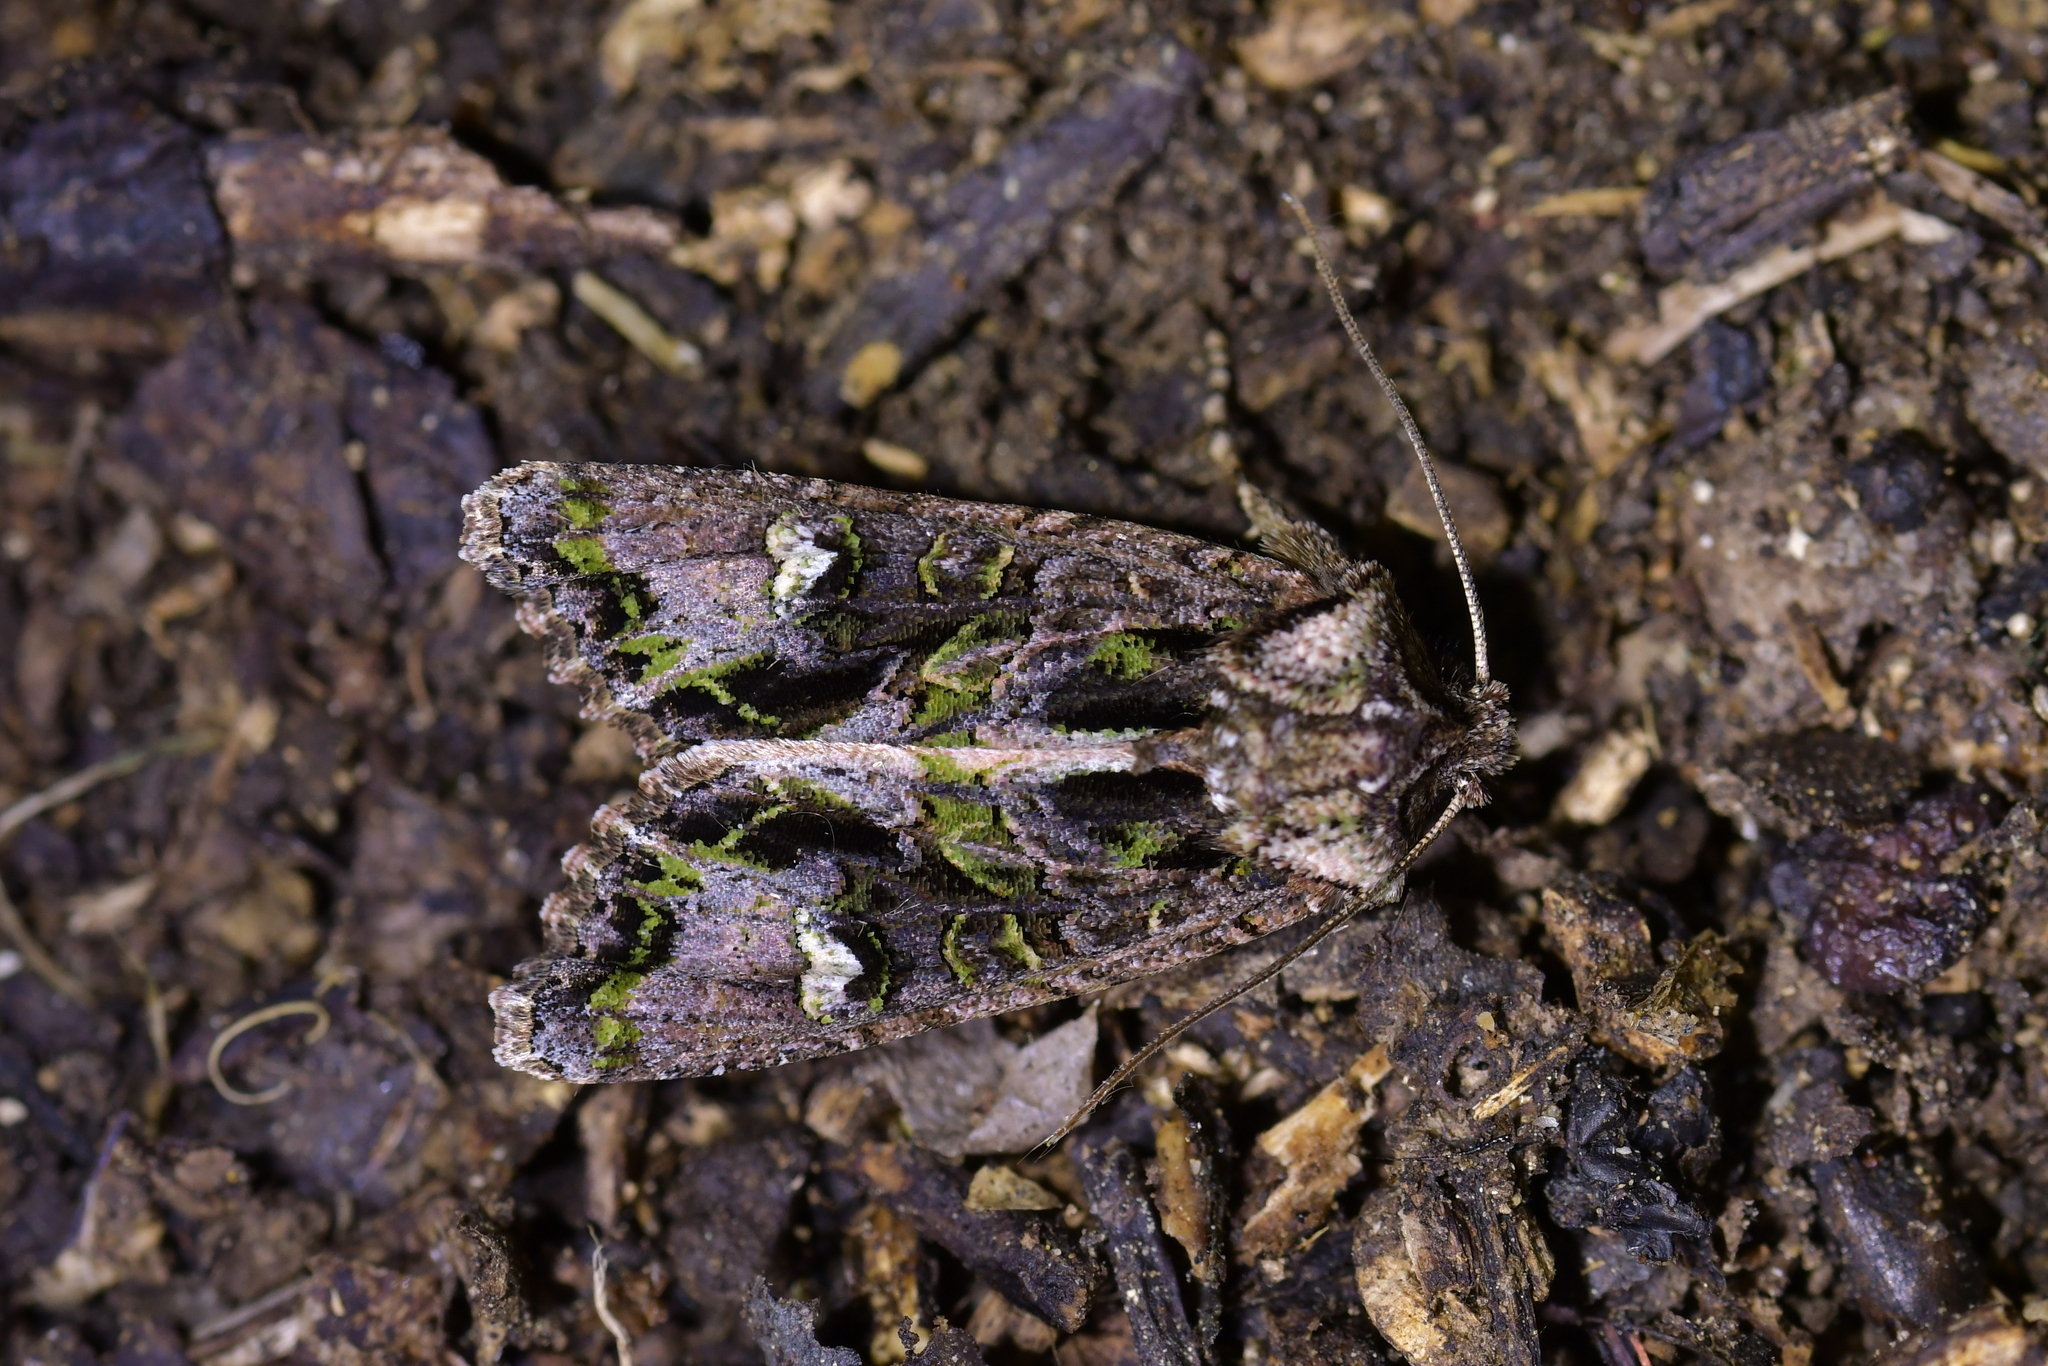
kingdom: Animalia
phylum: Arthropoda
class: Insecta
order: Lepidoptera
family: Noctuidae
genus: Ichneutica
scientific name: Ichneutica insignis
